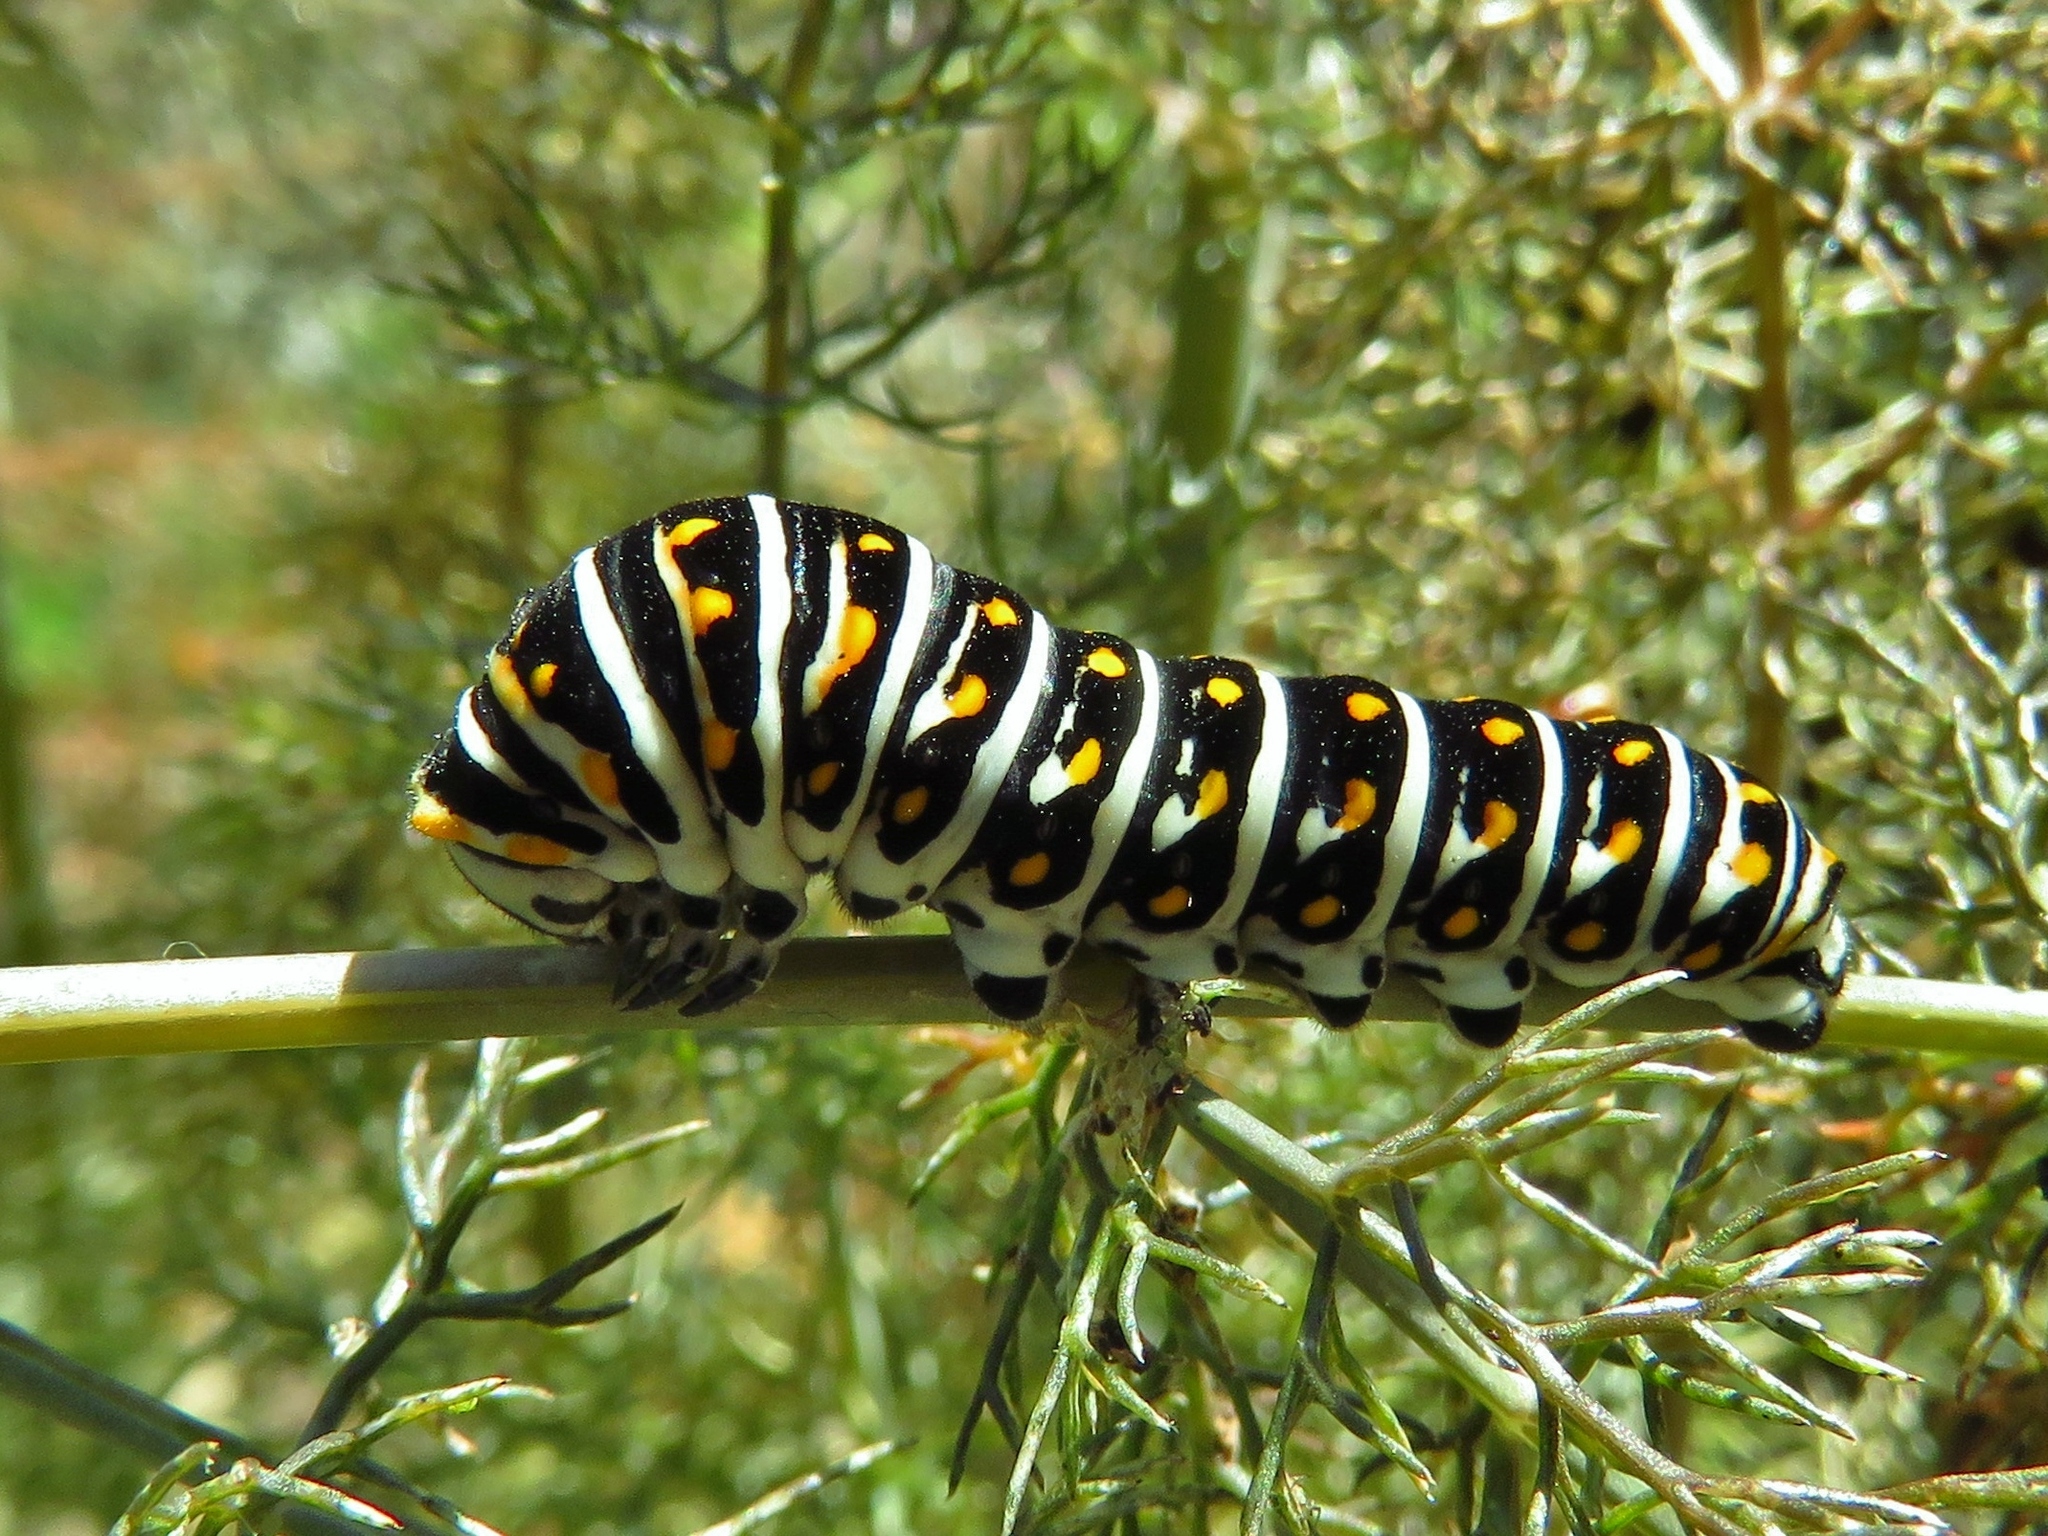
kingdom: Animalia
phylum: Arthropoda
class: Insecta
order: Lepidoptera
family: Papilionidae
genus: Papilio
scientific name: Papilio polyxenes
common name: Black swallowtail
